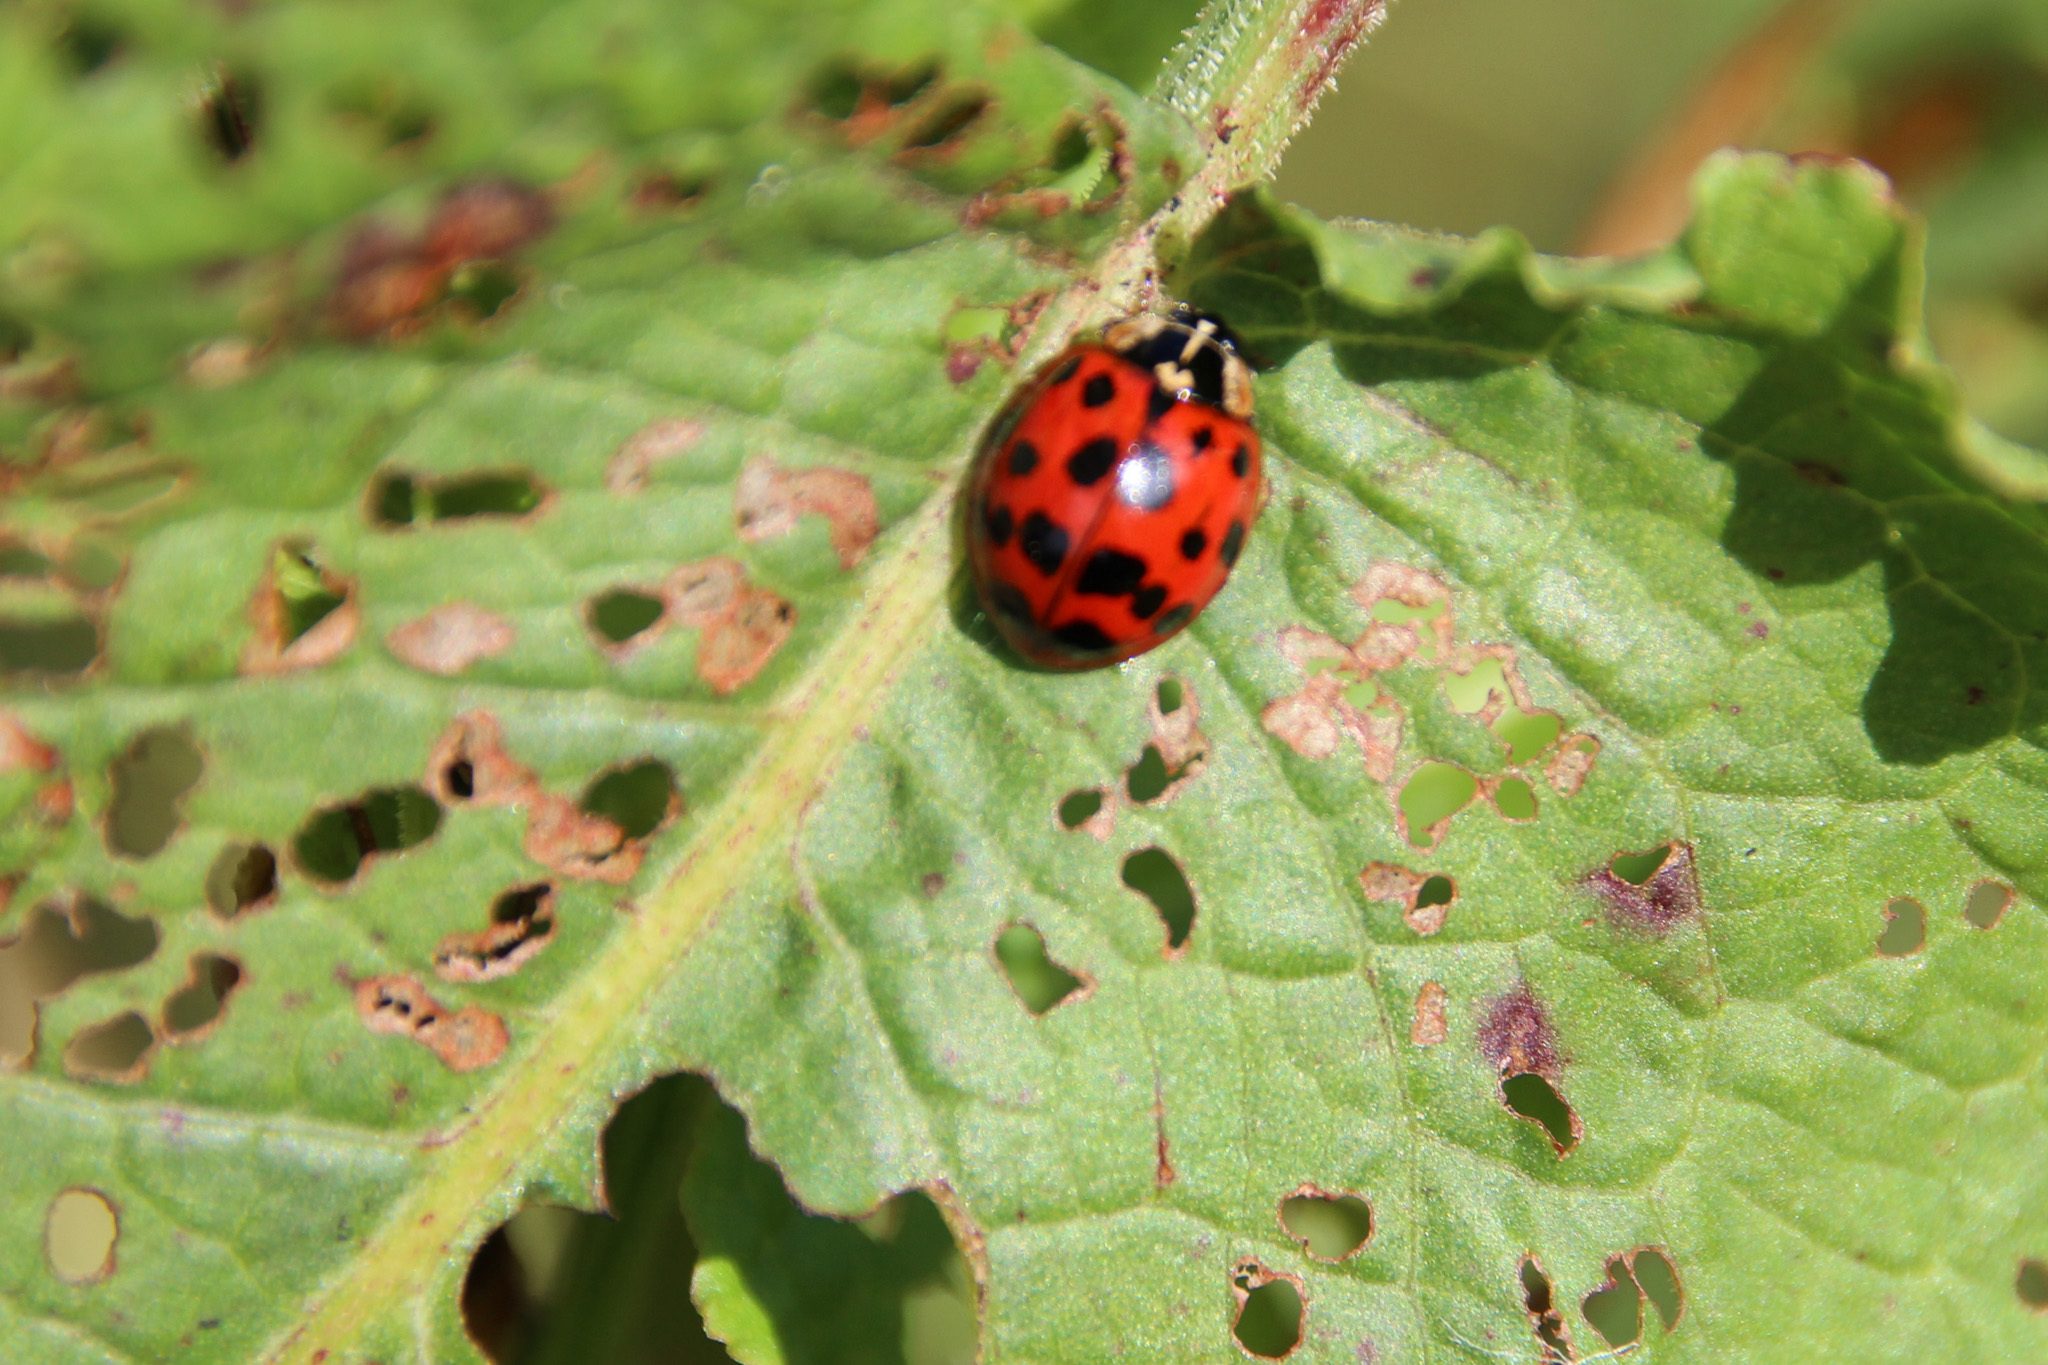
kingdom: Animalia
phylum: Arthropoda
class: Insecta
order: Coleoptera
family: Coccinellidae
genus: Harmonia
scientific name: Harmonia axyridis
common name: Harlequin ladybird
